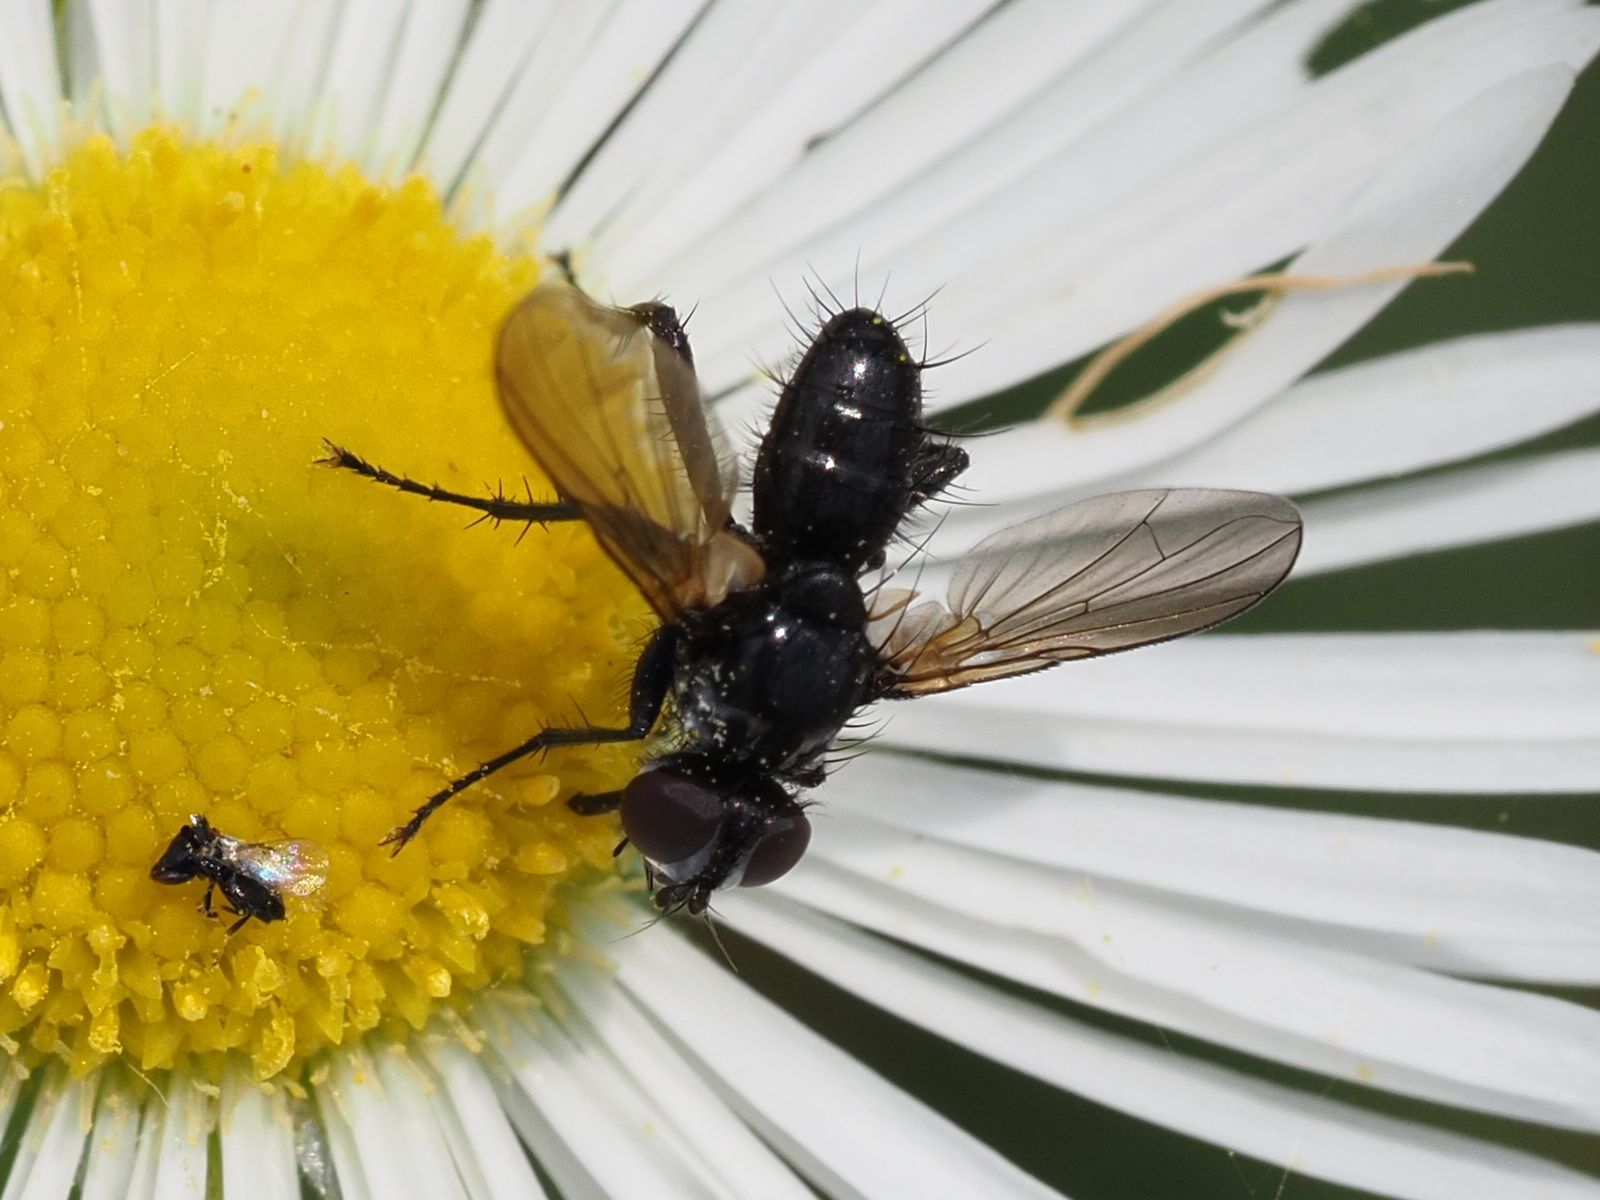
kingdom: Animalia
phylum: Arthropoda
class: Insecta
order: Diptera
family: Tachinidae
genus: Phania
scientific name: Phania funesta
